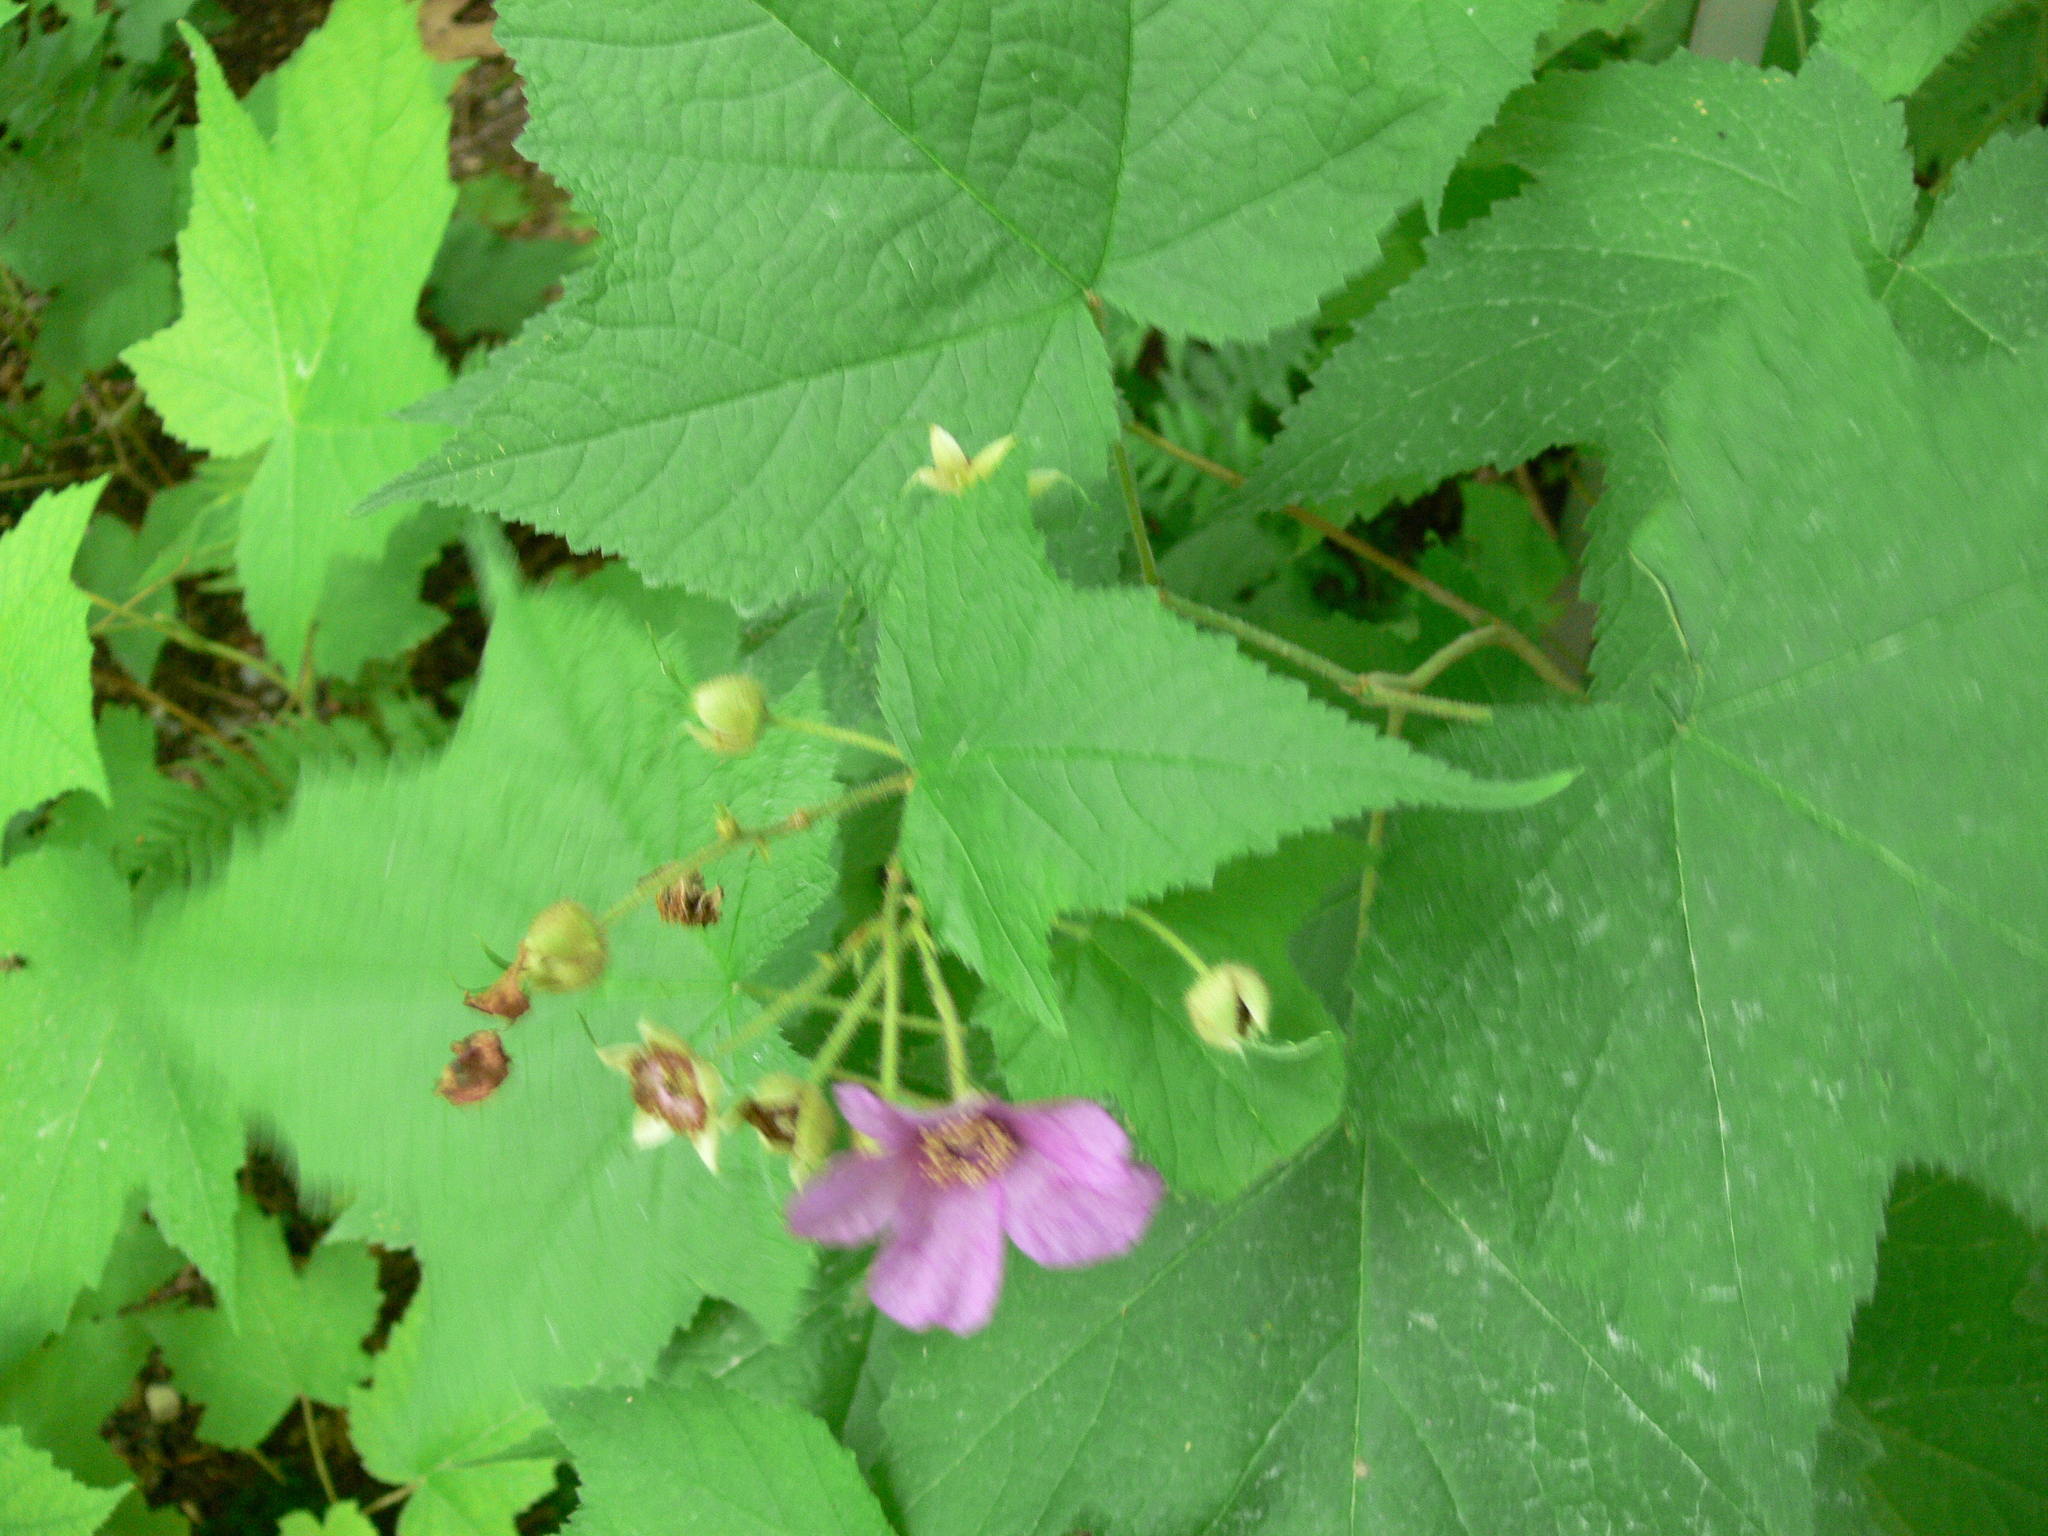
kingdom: Plantae
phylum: Tracheophyta
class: Magnoliopsida
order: Rosales
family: Rosaceae
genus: Rubus
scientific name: Rubus odoratus
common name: Purple-flowered raspberry
